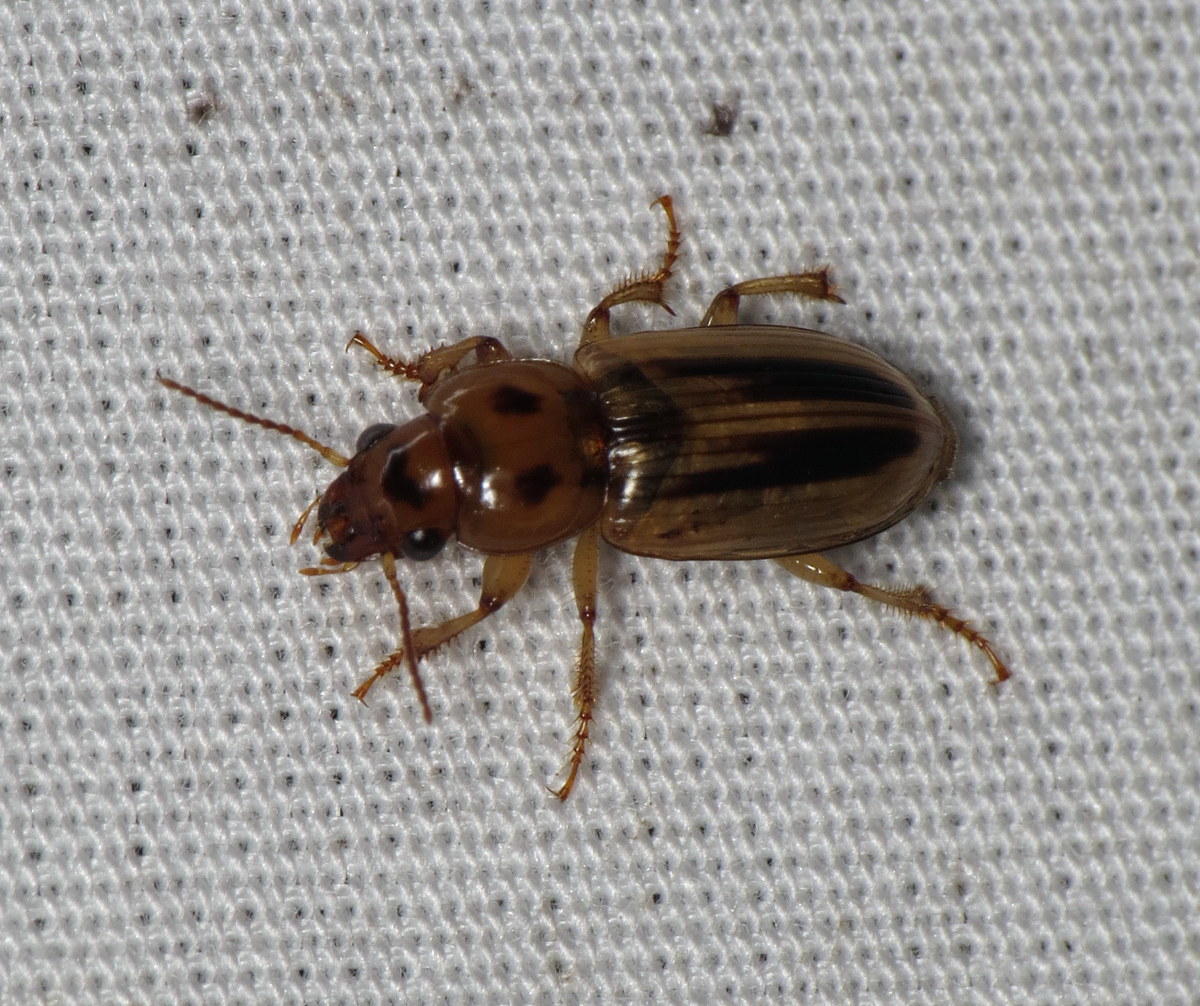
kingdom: Animalia
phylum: Arthropoda
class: Insecta
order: Coleoptera
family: Carabidae
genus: Stenolophus
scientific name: Stenolophus lineola
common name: Lined stenolophus
